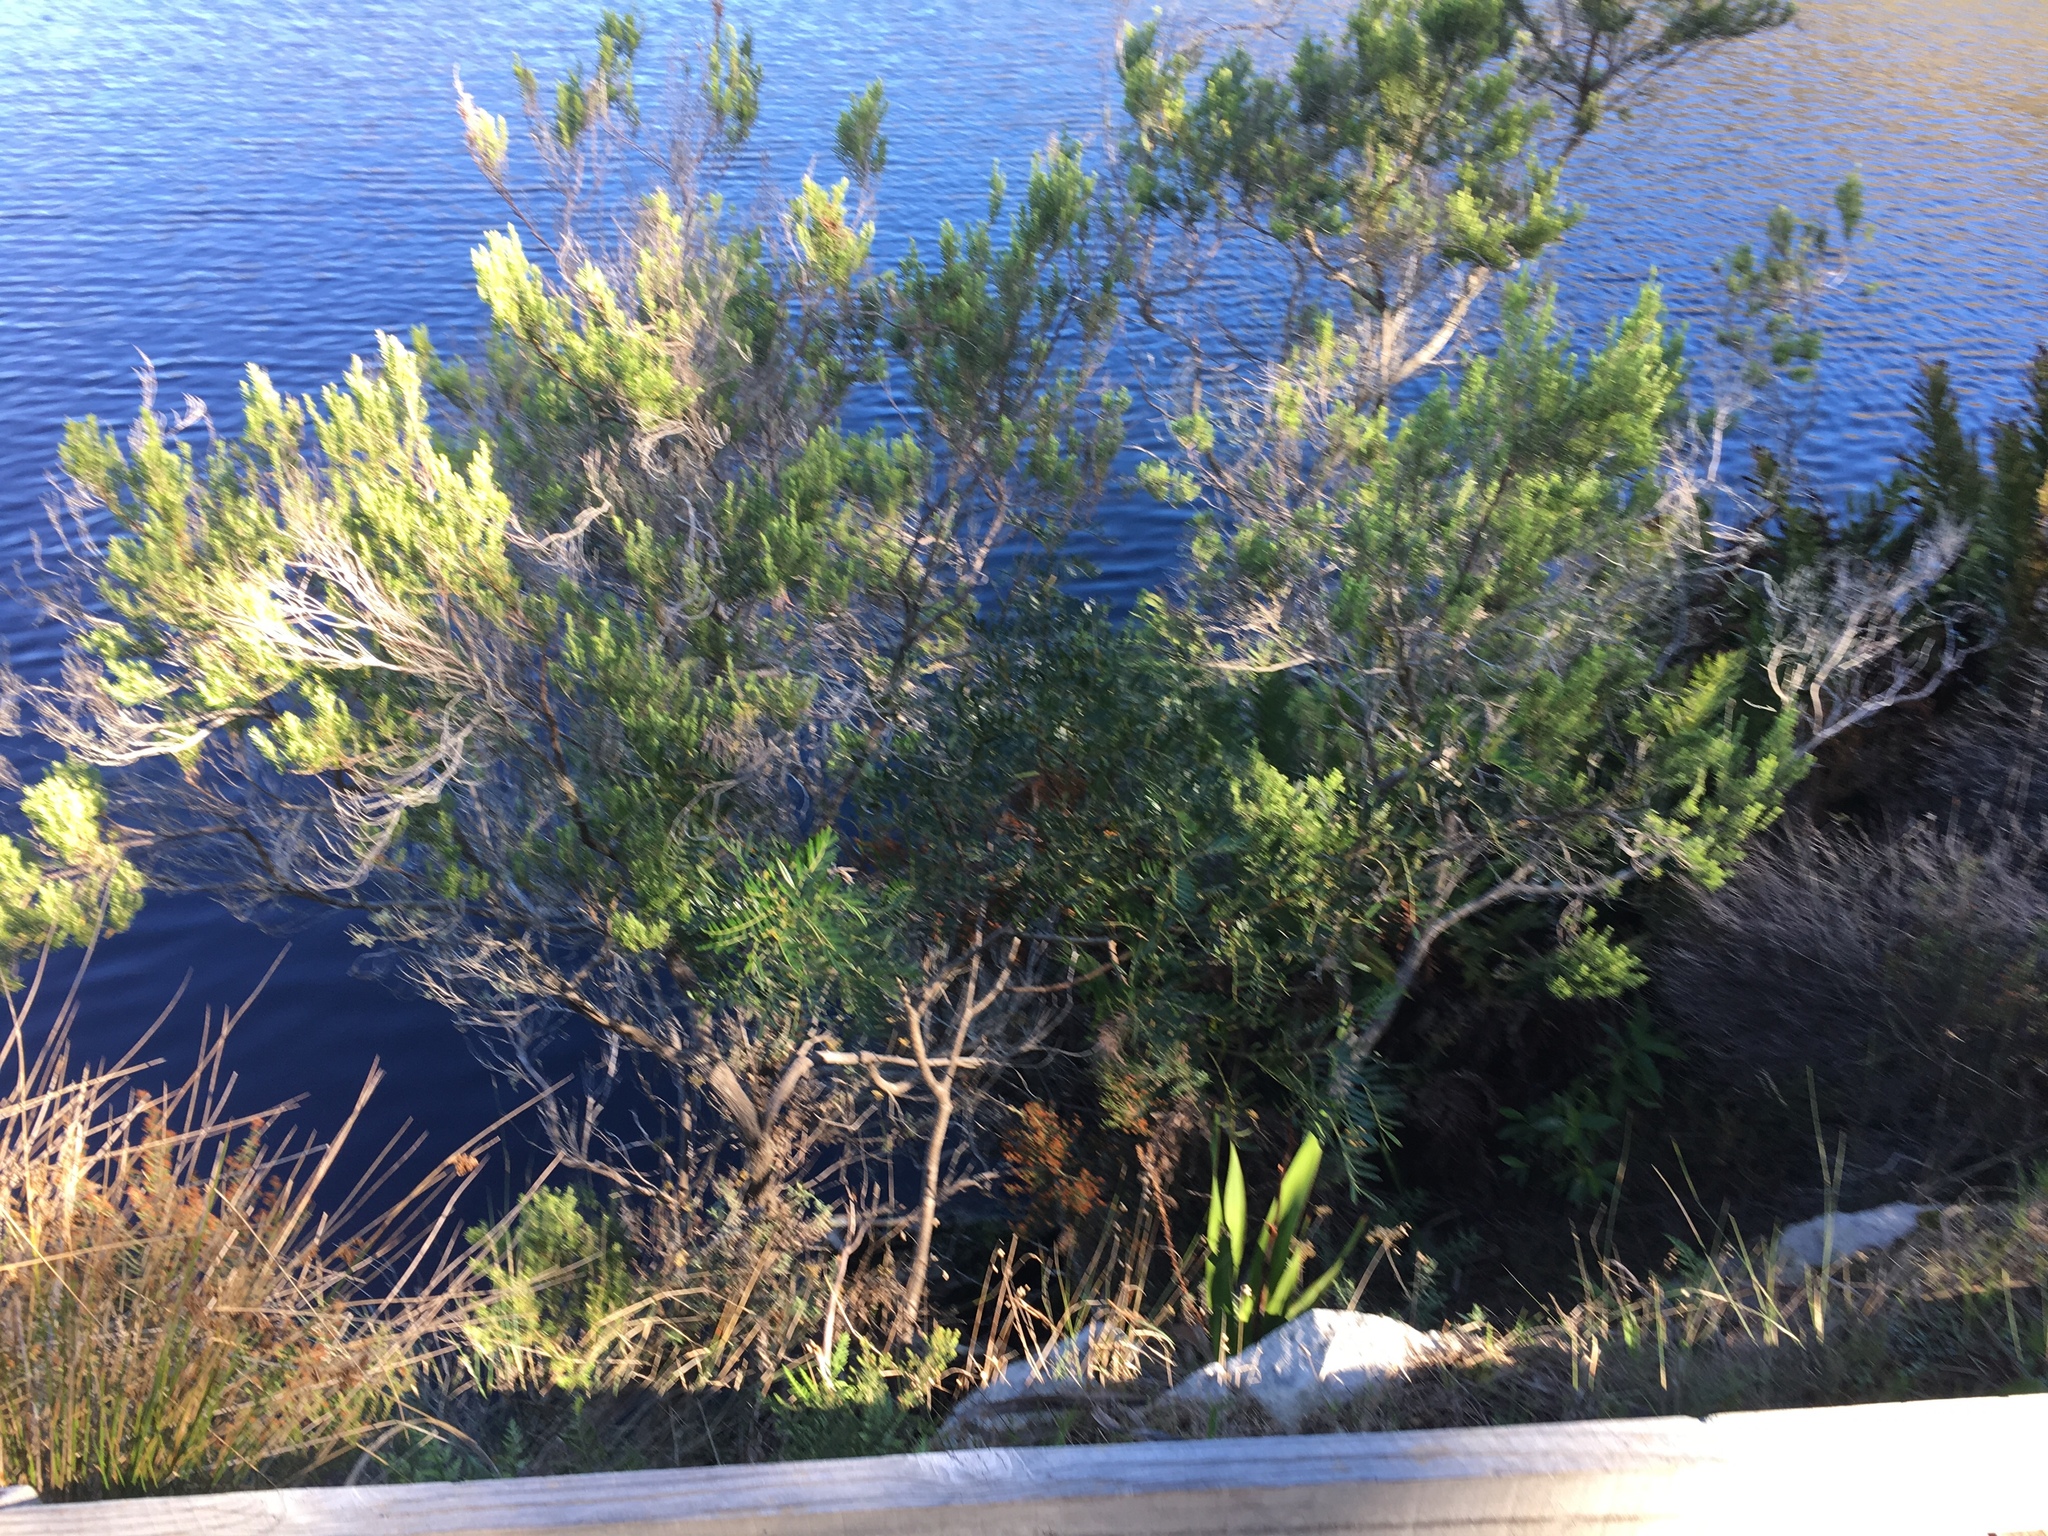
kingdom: Plantae
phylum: Tracheophyta
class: Magnoliopsida
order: Ericales
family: Ericaceae
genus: Erica
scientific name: Erica caffra
